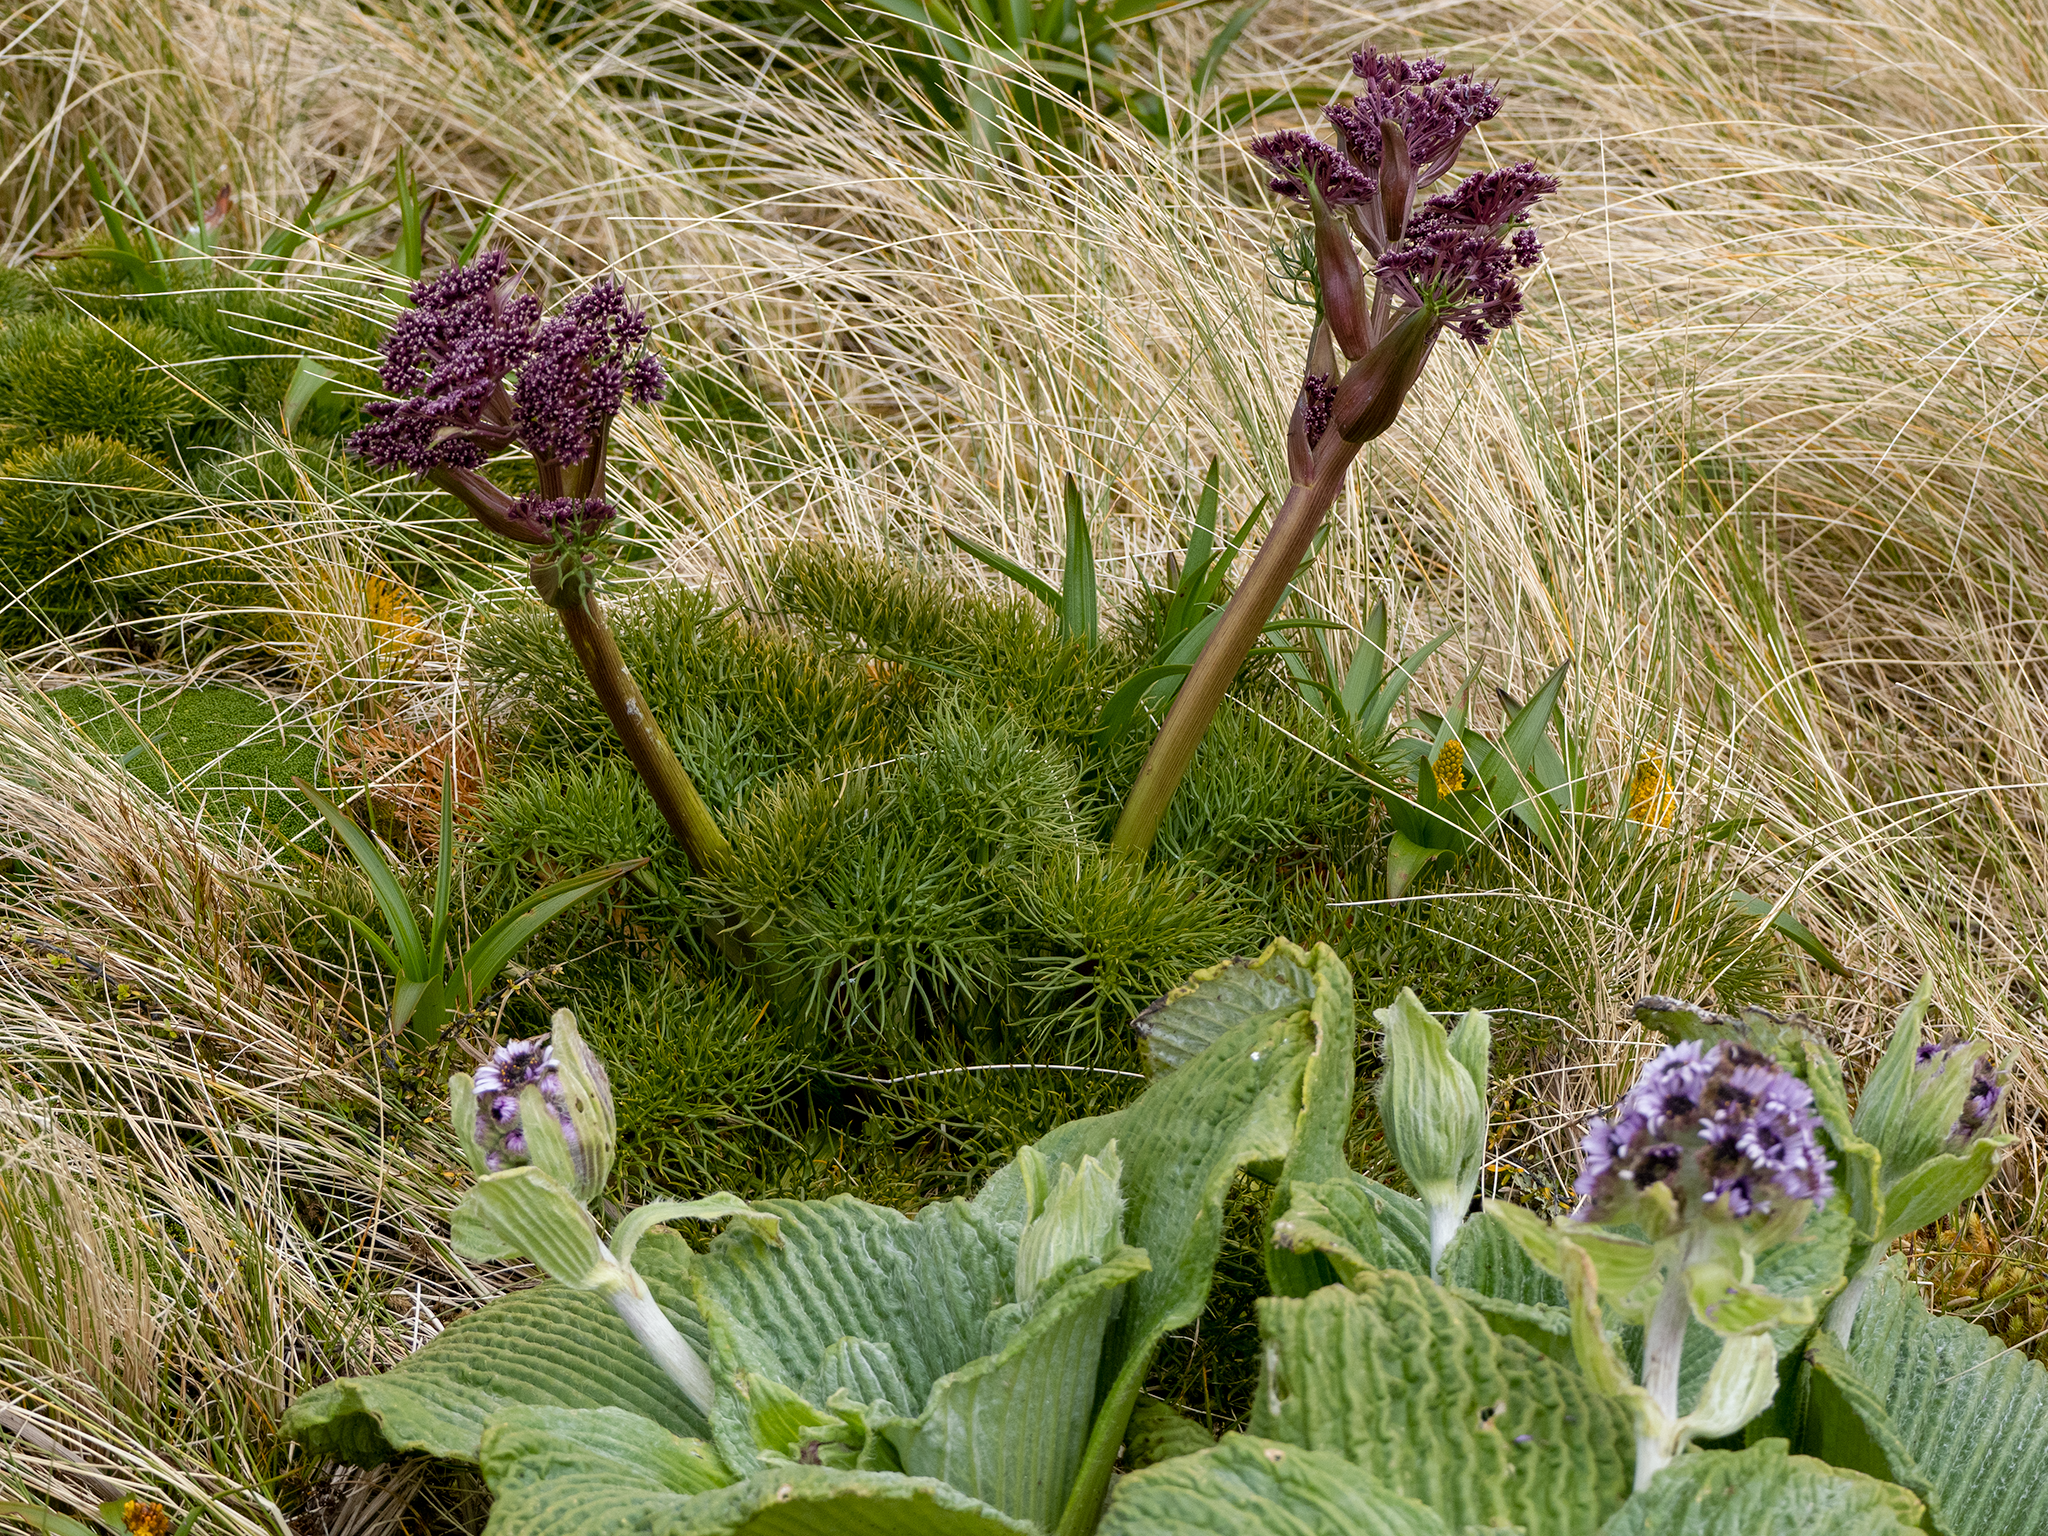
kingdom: Plantae
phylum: Tracheophyta
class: Magnoliopsida
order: Apiales
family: Apiaceae
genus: Anisotome
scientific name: Anisotome antipoda
